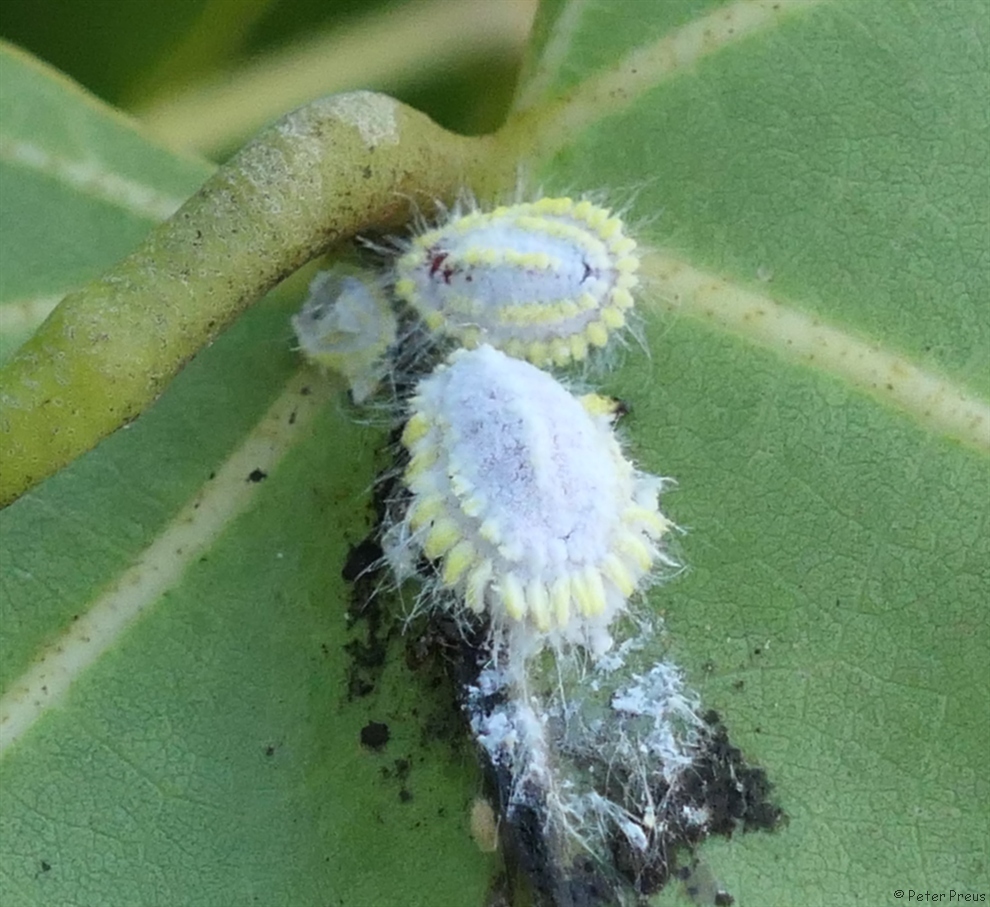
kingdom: Animalia
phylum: Arthropoda
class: Insecta
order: Hemiptera
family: Margarodidae
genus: Icerya
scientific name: Icerya seychellarum
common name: Iceplant scale
